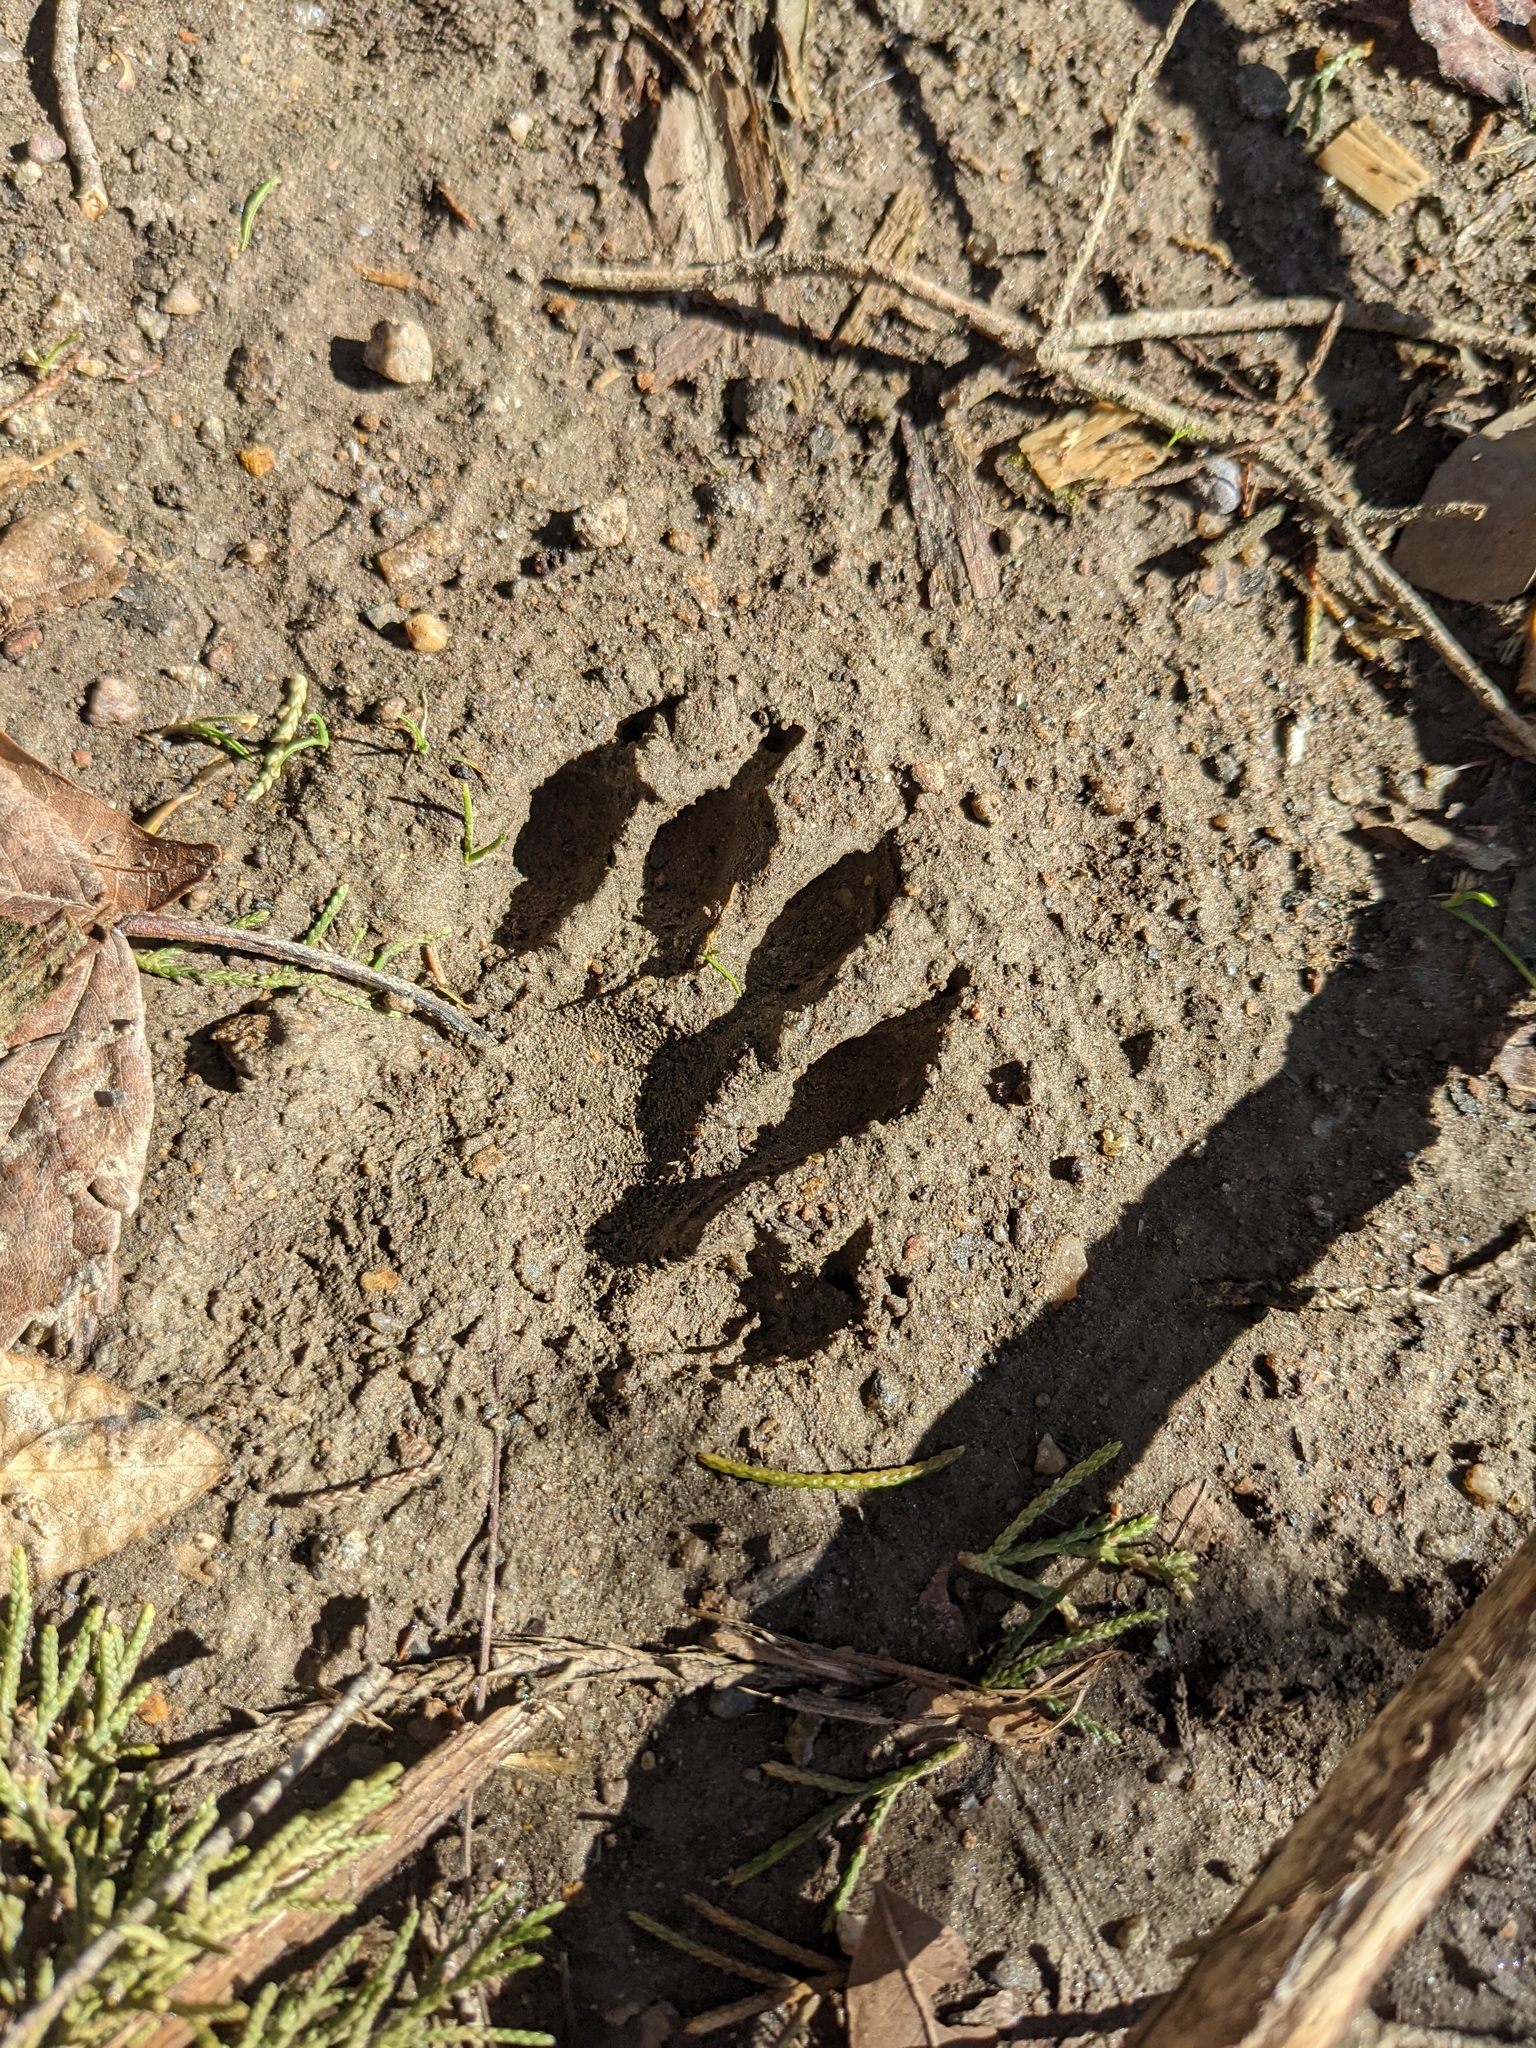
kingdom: Animalia
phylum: Chordata
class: Mammalia
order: Carnivora
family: Procyonidae
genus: Procyon
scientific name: Procyon lotor
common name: Raccoon
